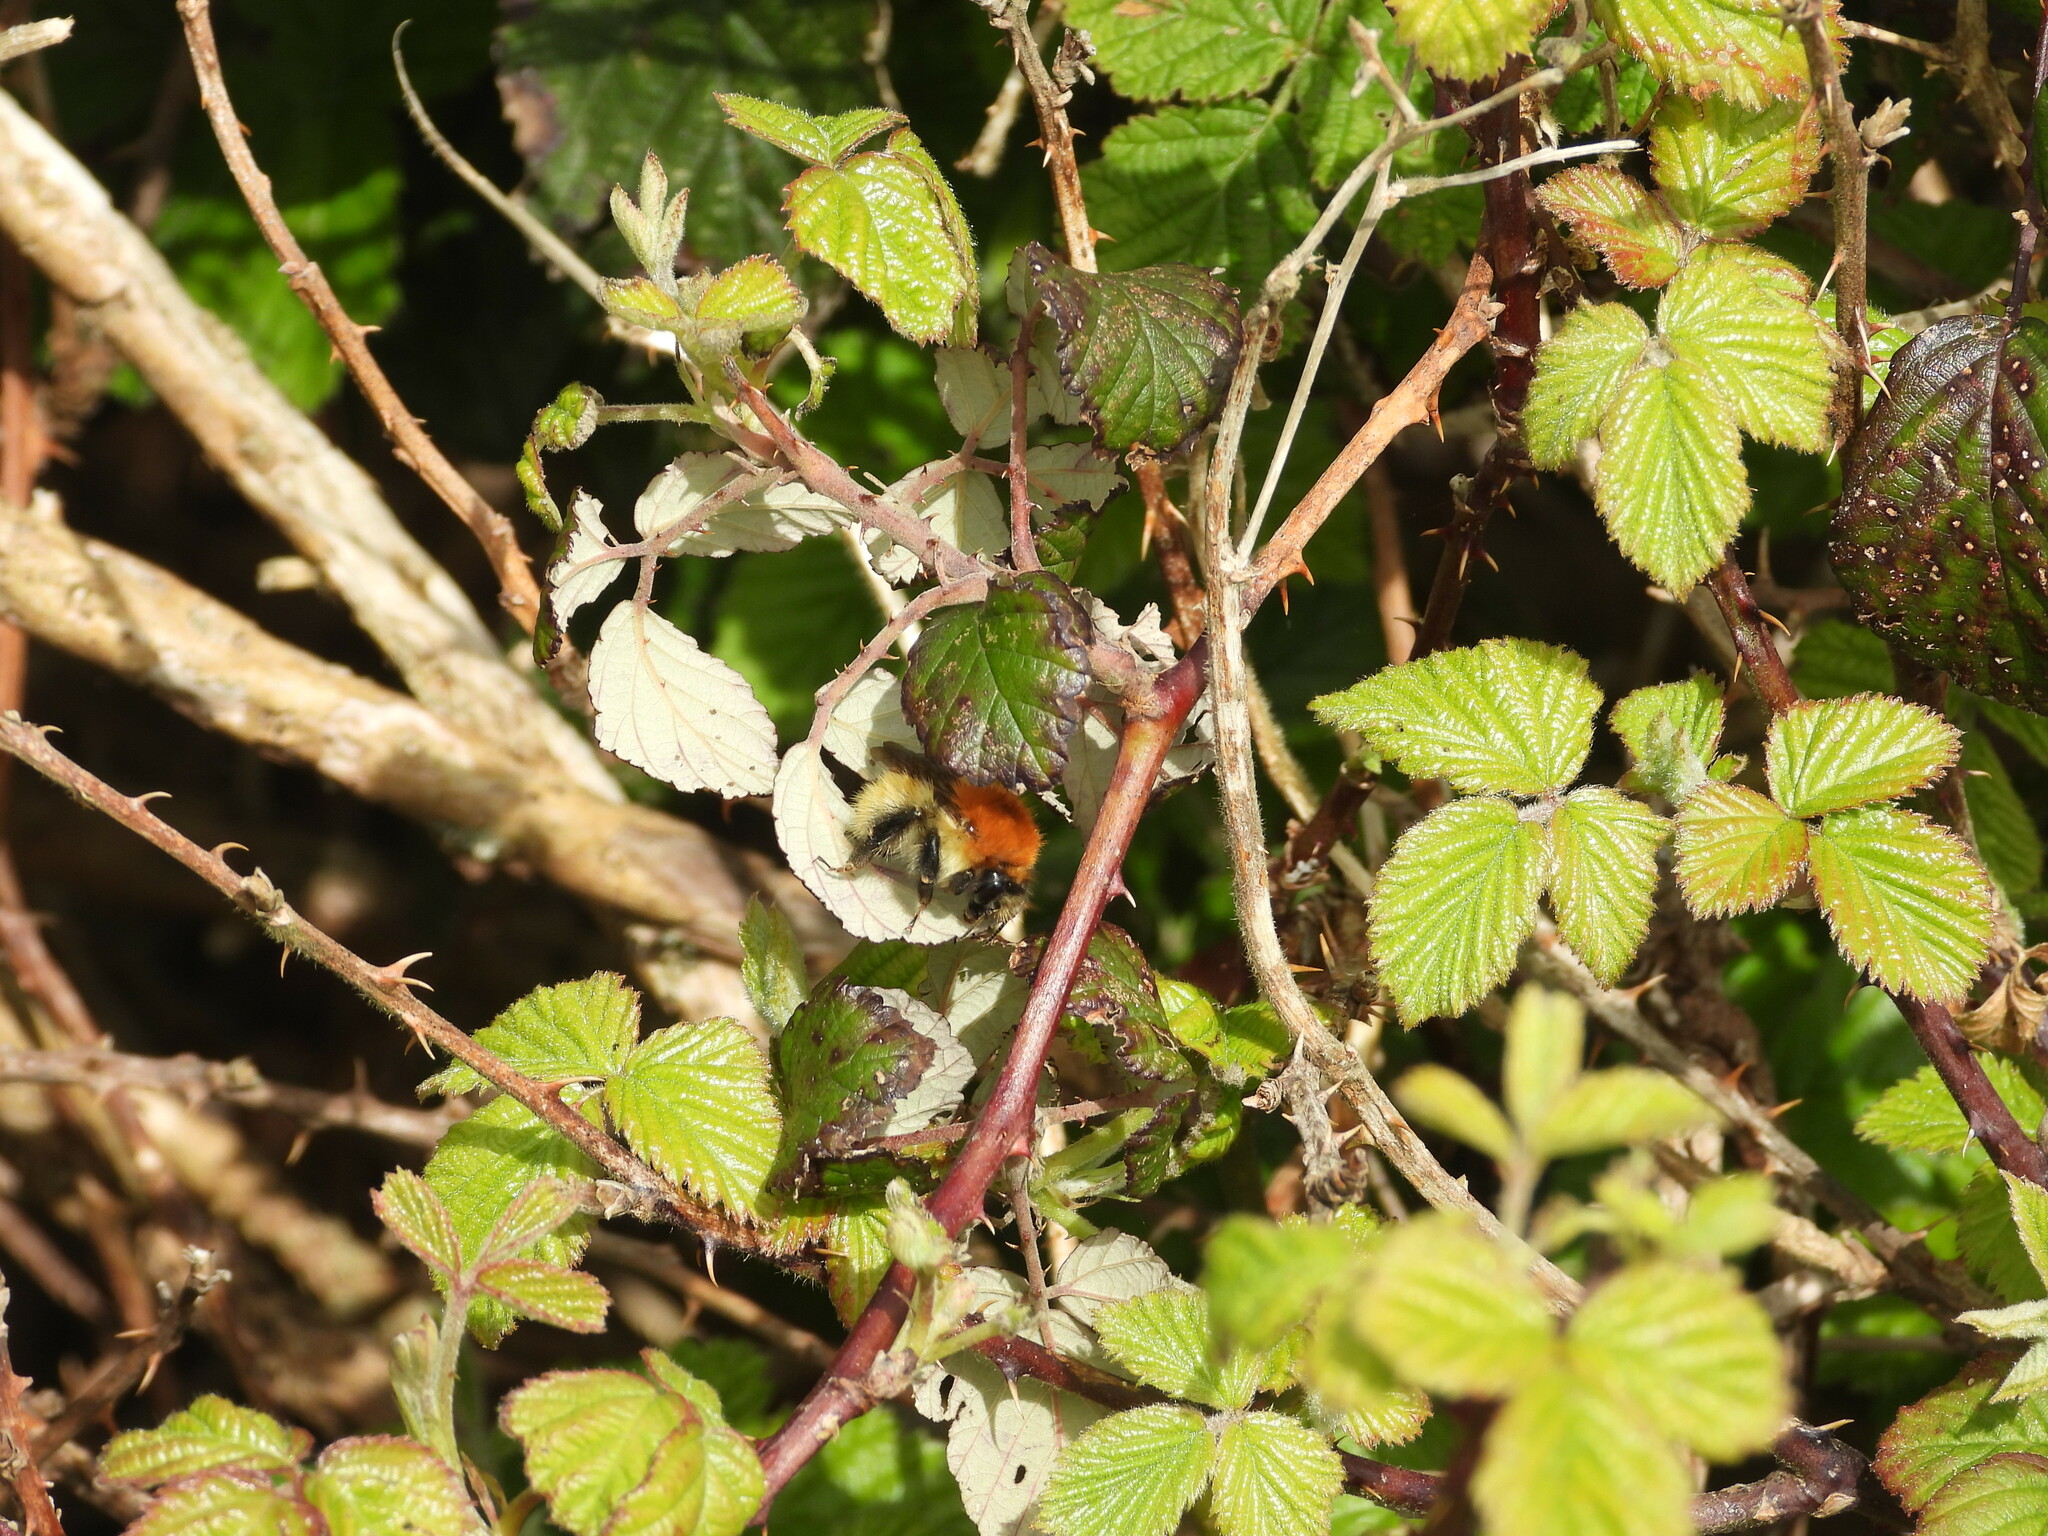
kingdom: Animalia
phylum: Arthropoda
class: Insecta
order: Hymenoptera
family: Apidae
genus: Bombus
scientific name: Bombus pascuorum
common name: Common carder bee
